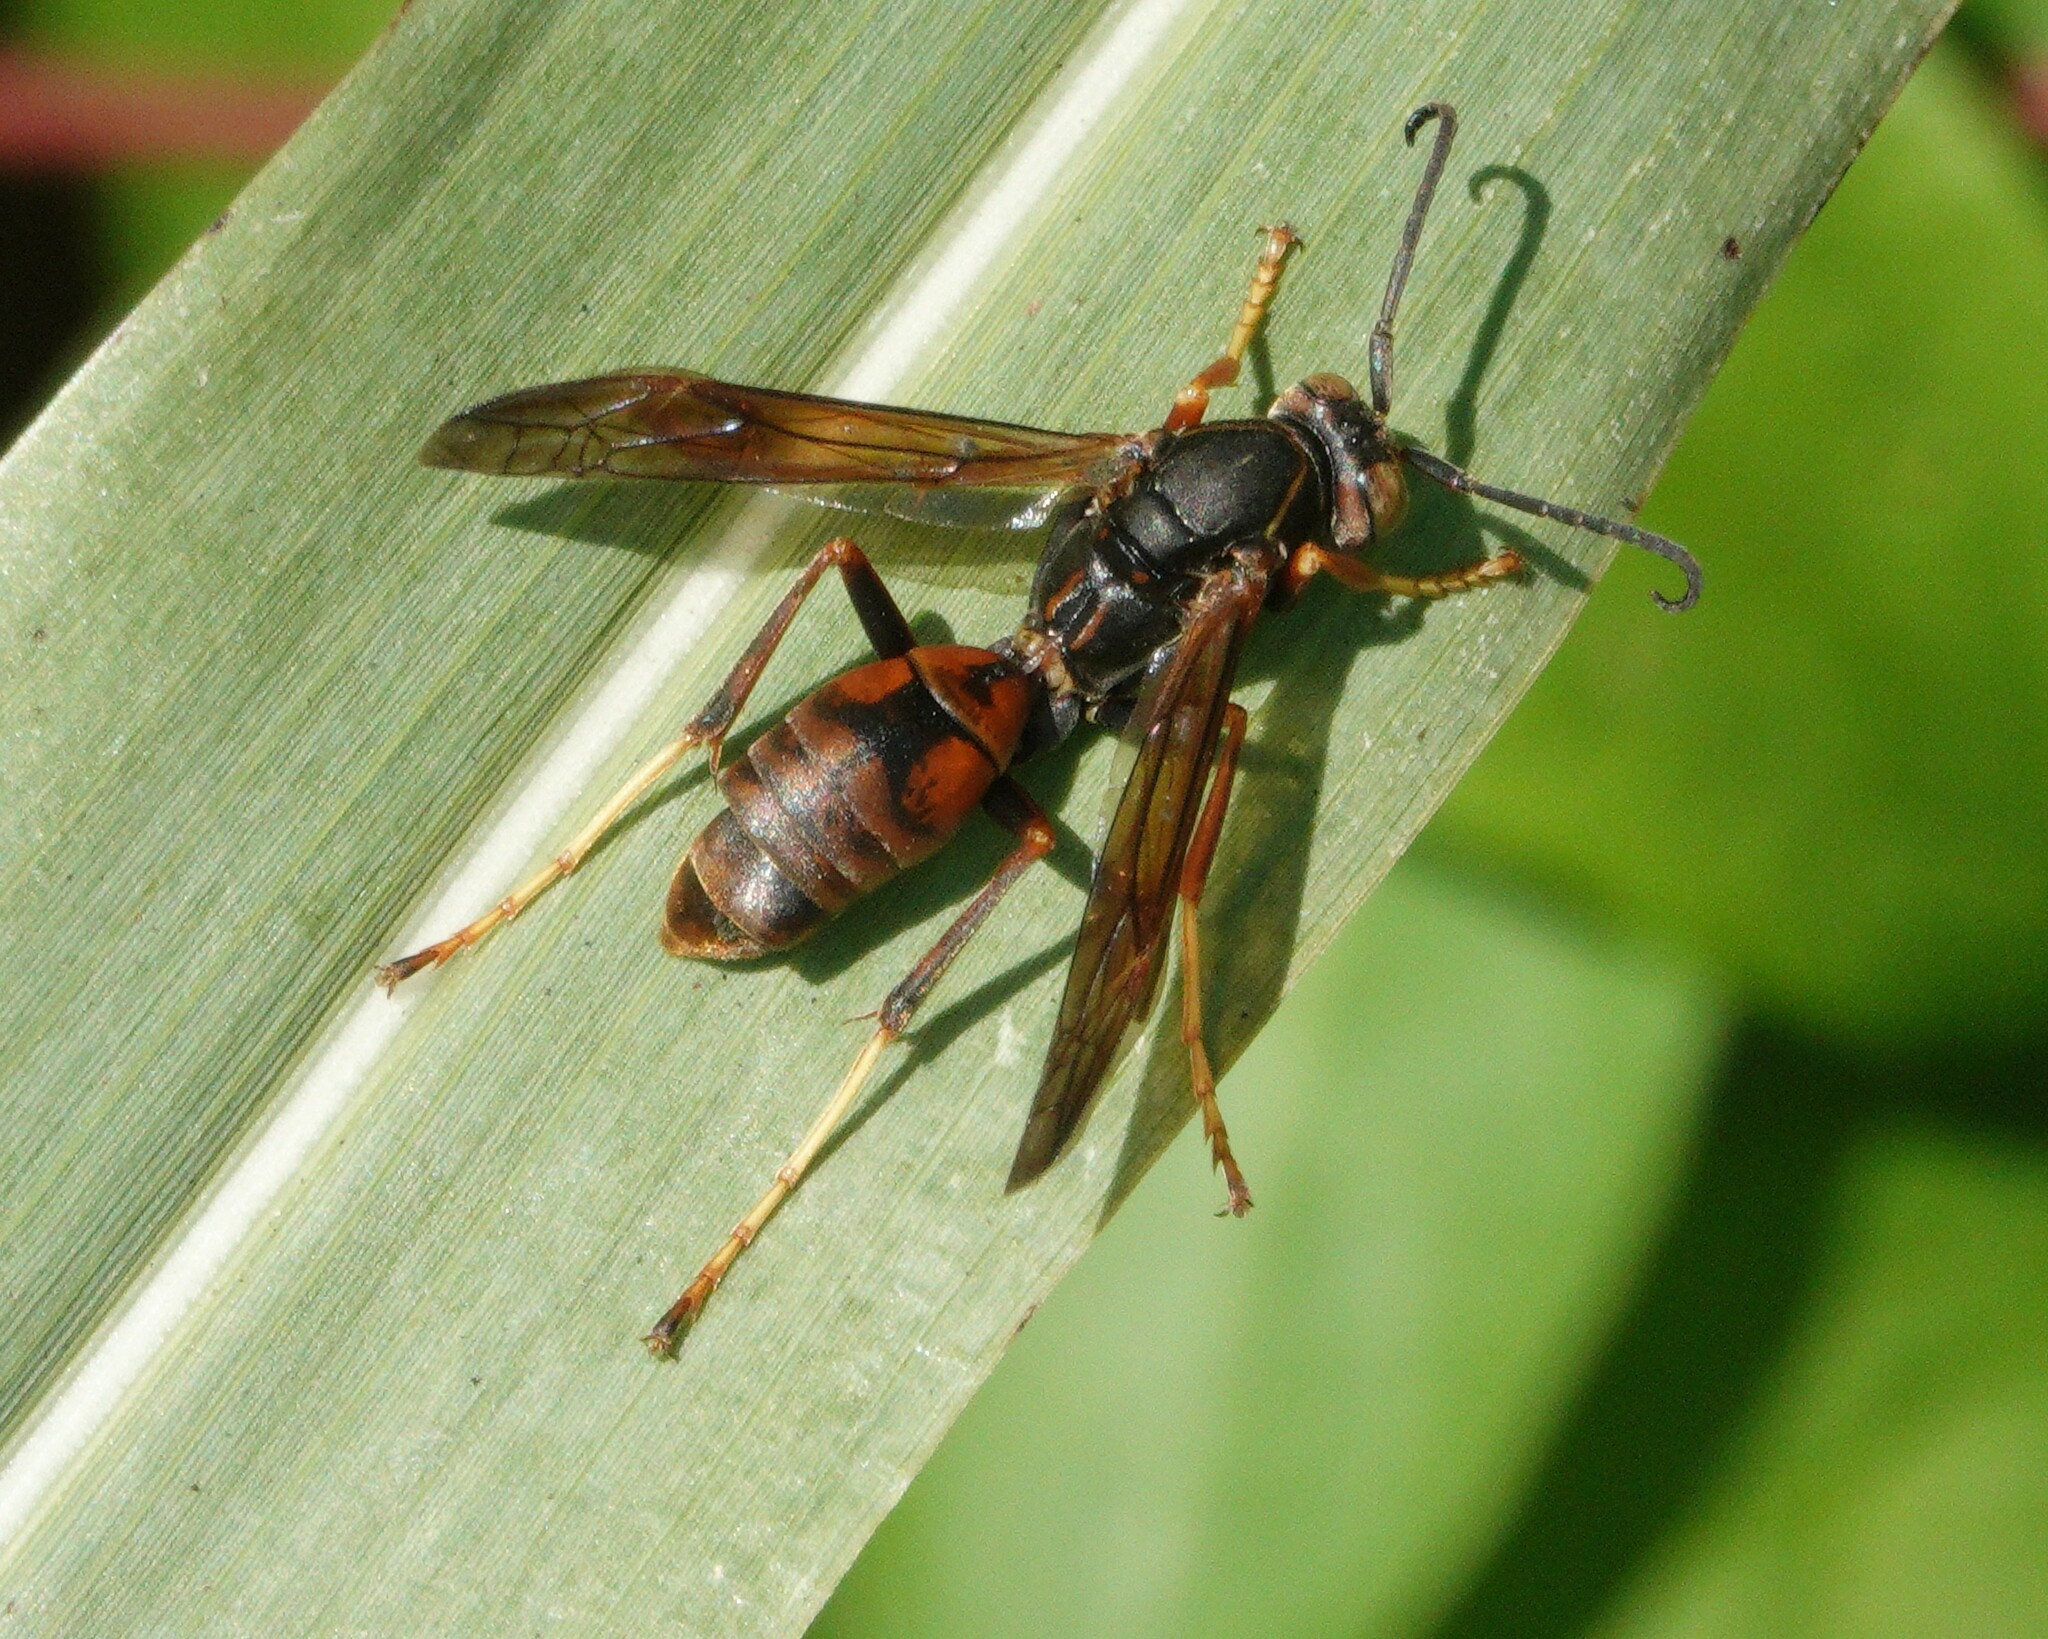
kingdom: Animalia
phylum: Arthropoda
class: Insecta
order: Hymenoptera
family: Eumenidae
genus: Polistes
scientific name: Polistes fuscatus
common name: Dark paper wasp
